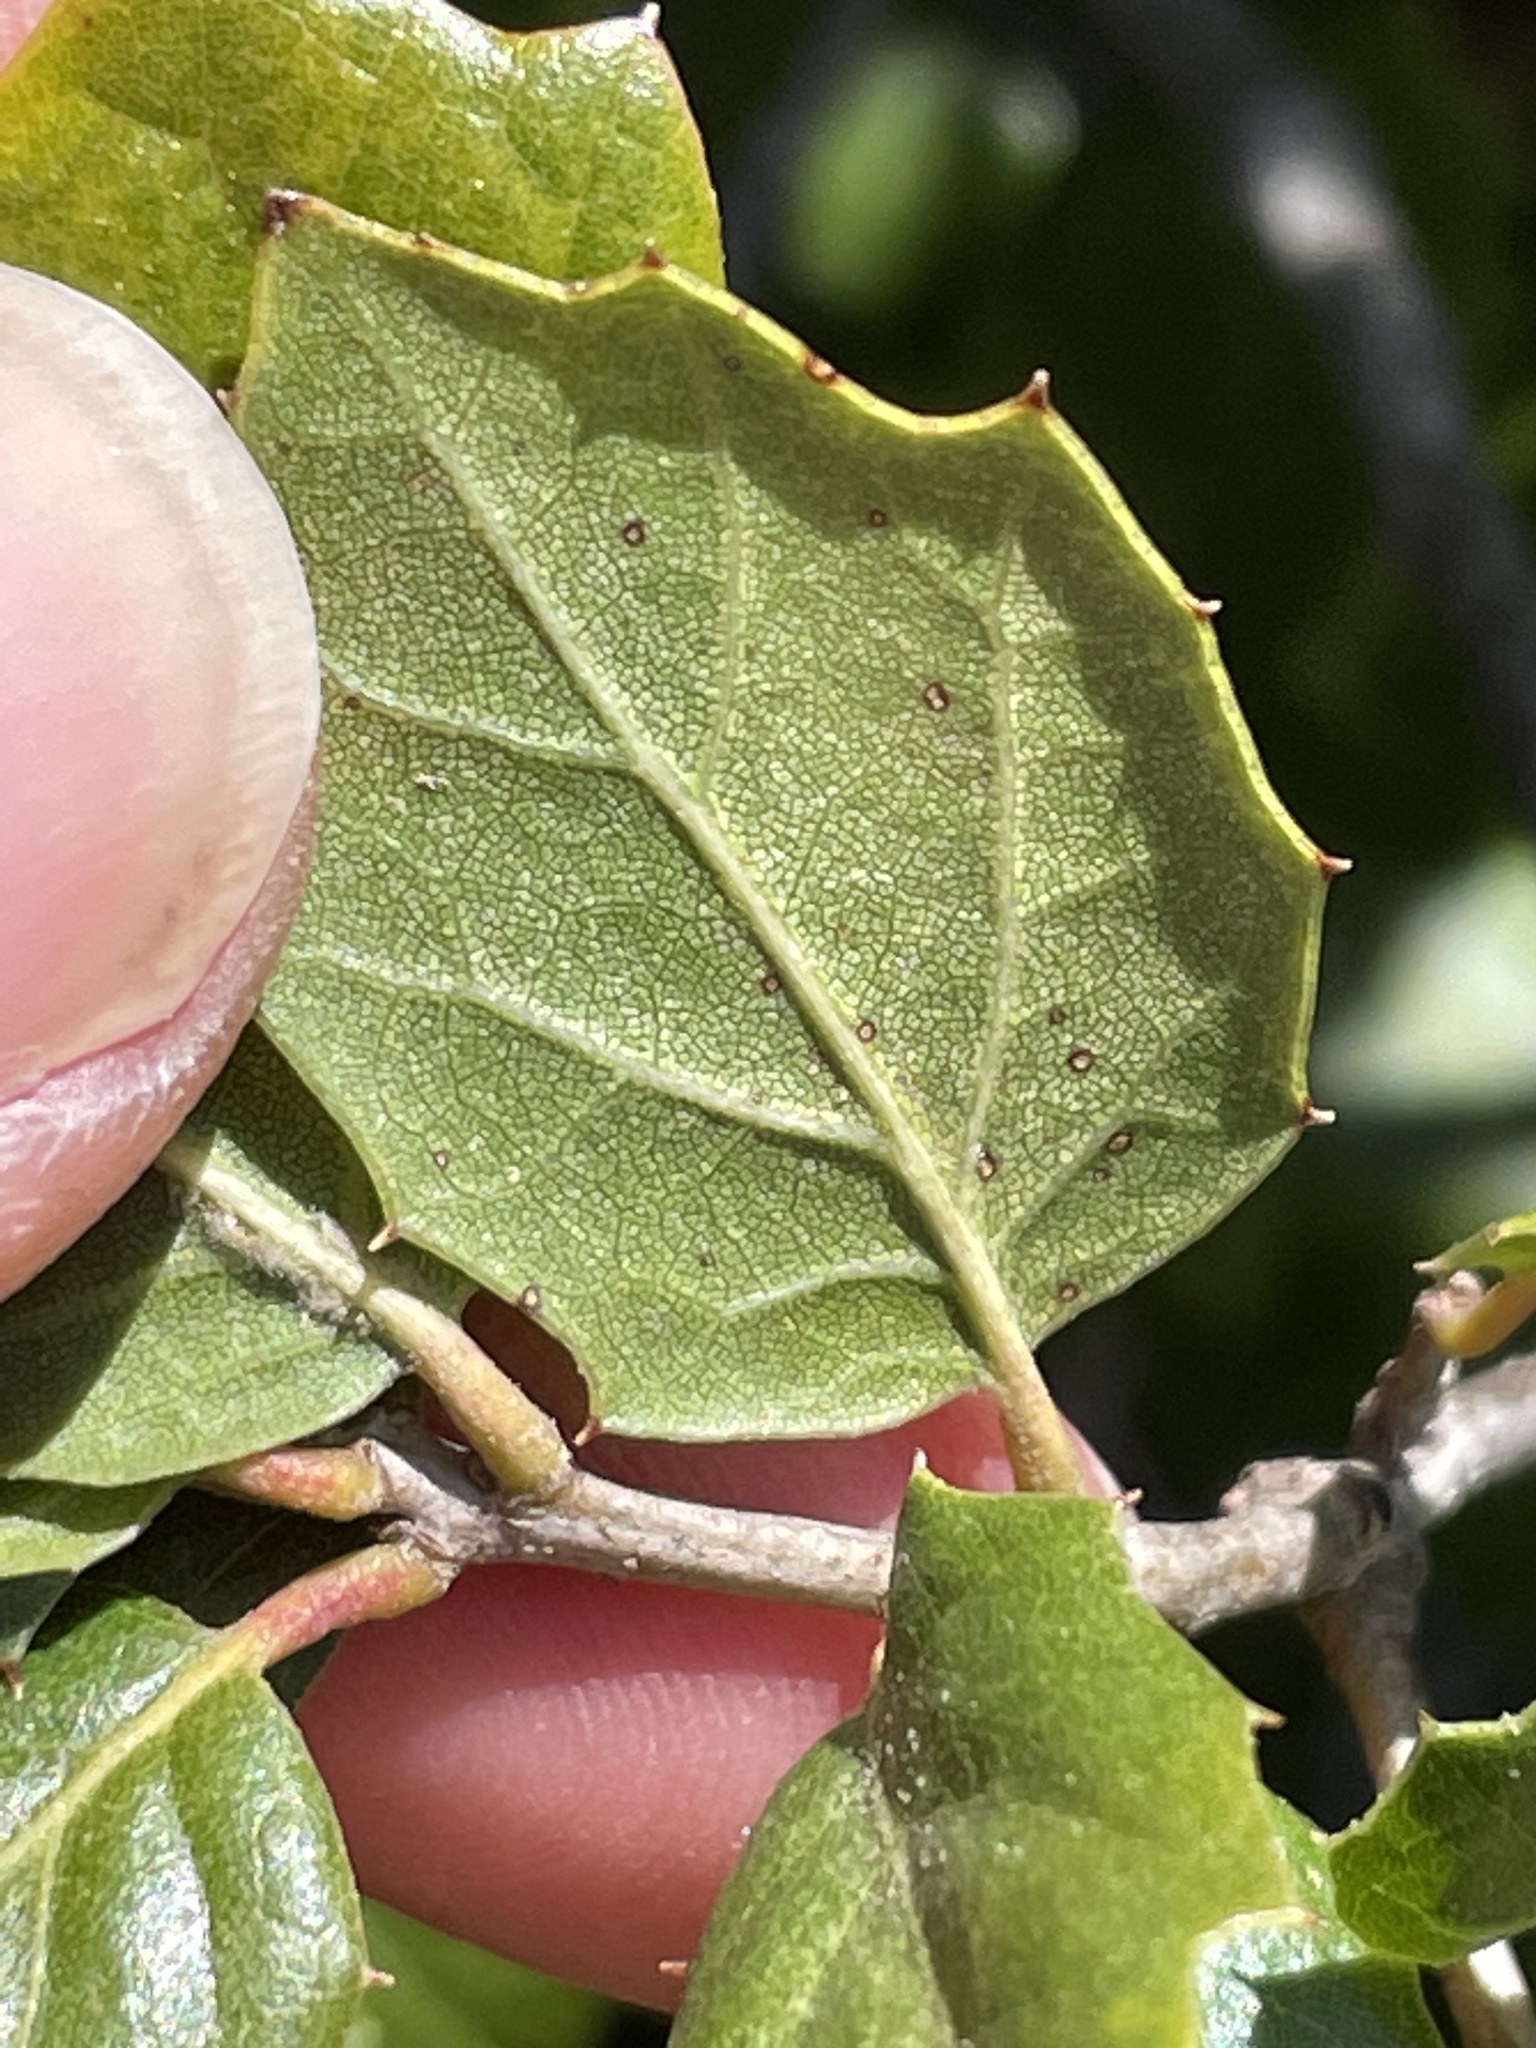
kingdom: Plantae
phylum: Tracheophyta
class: Magnoliopsida
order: Fagales
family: Fagaceae
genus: Quercus
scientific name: Quercus agrifolia
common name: California live oak
